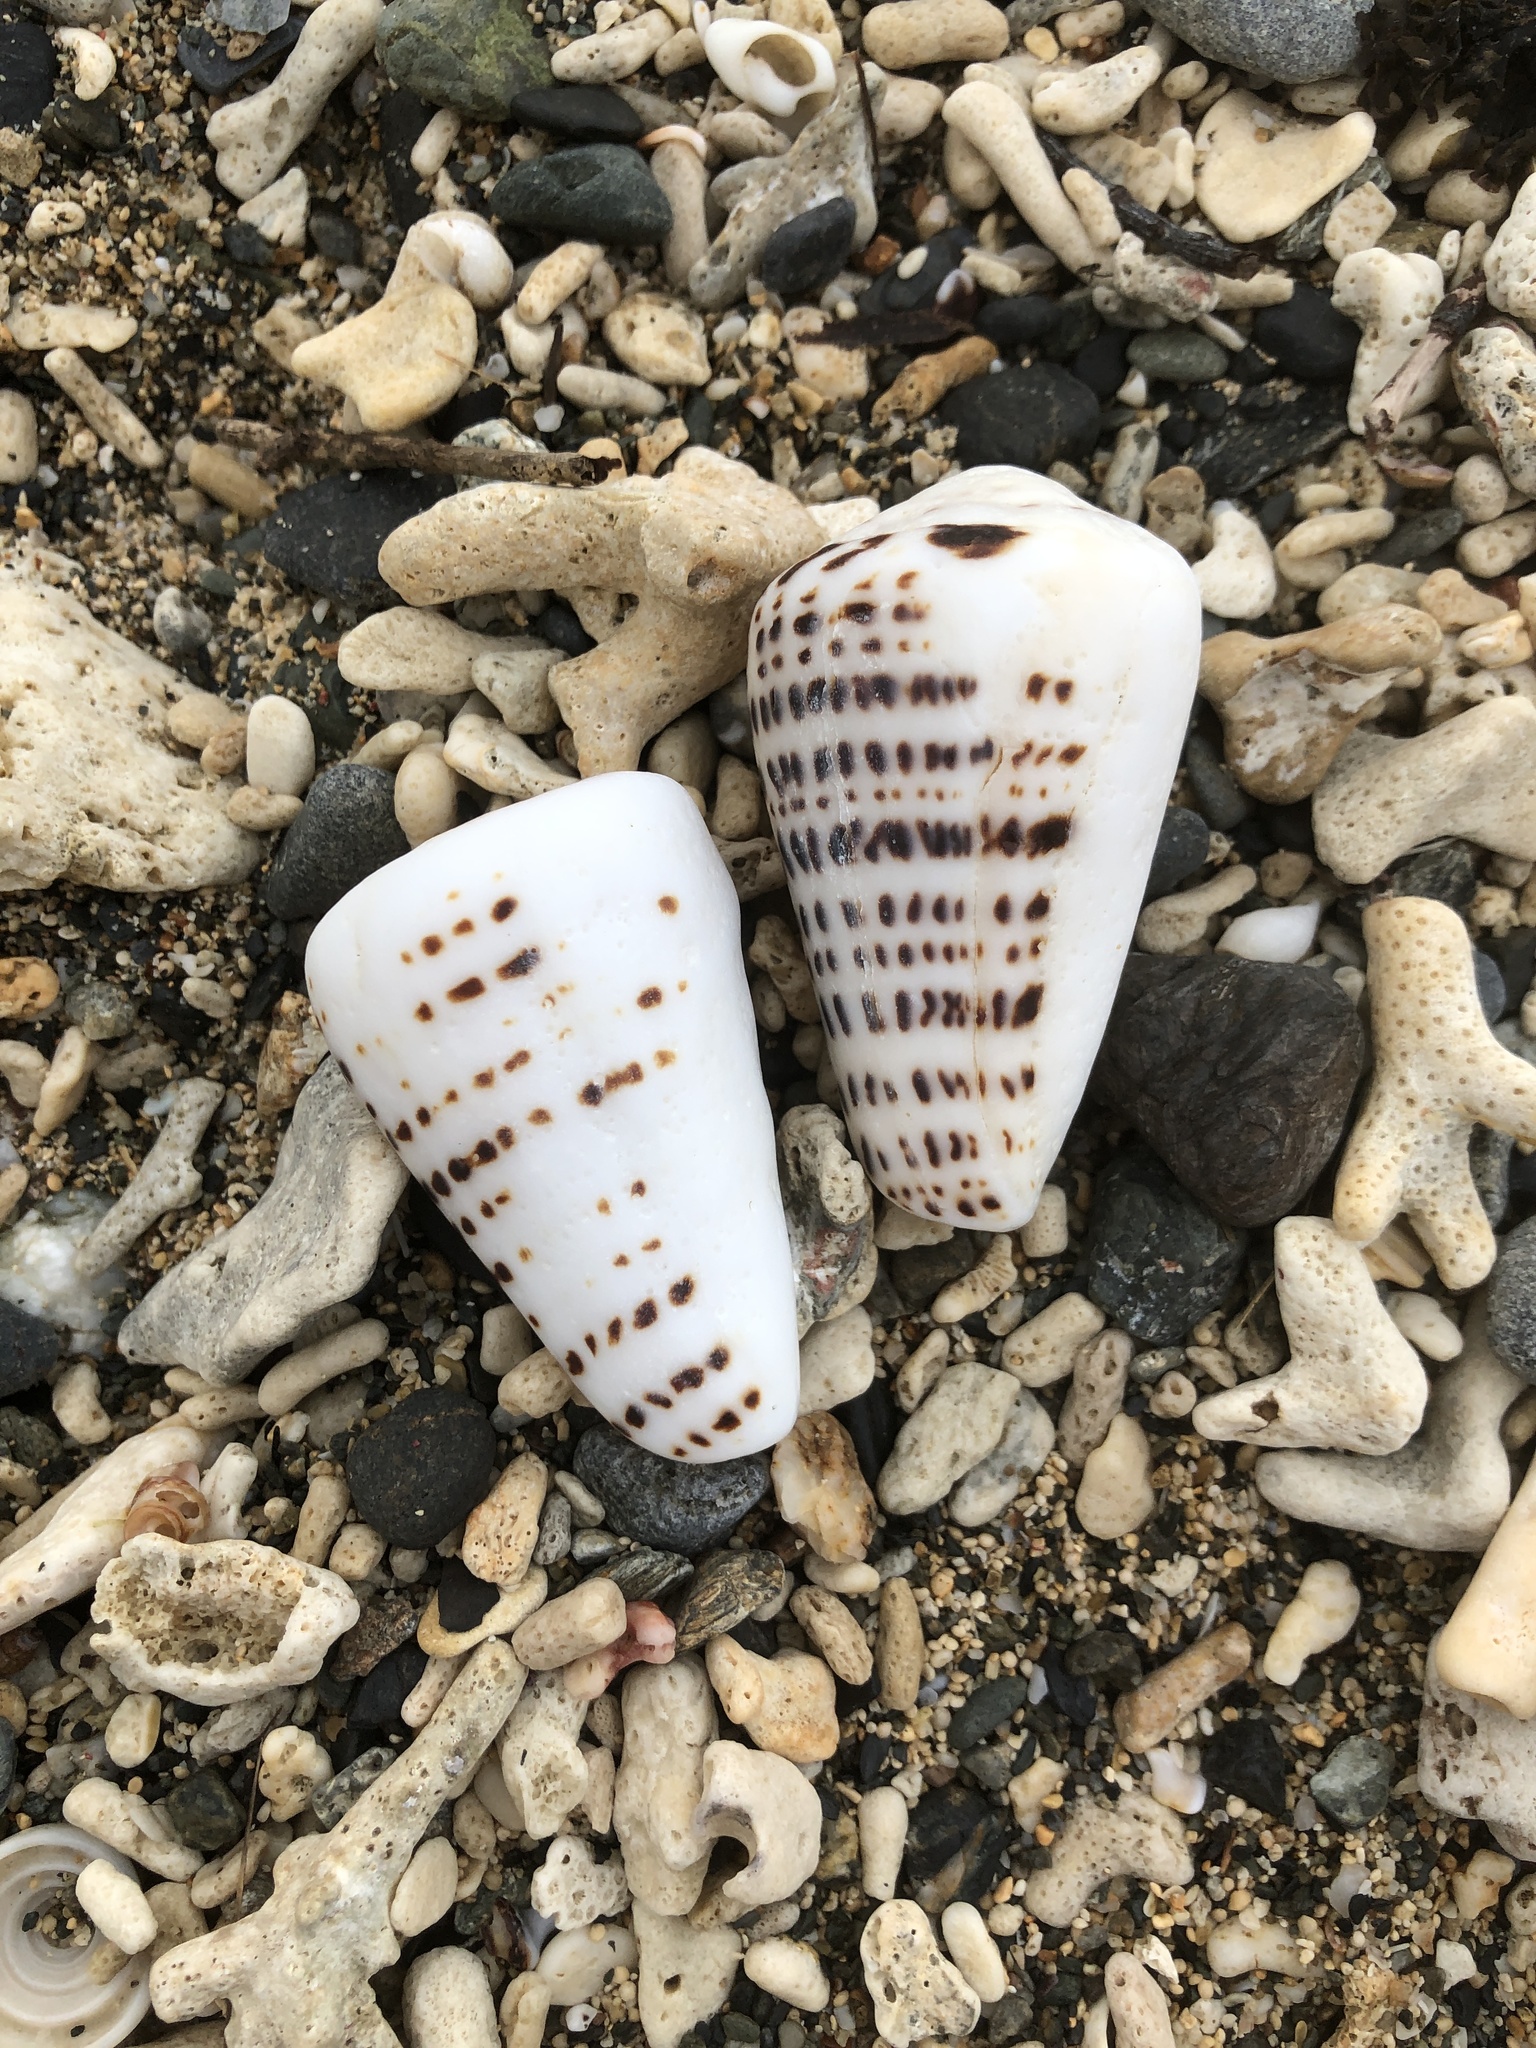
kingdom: Animalia
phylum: Mollusca
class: Gastropoda
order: Neogastropoda
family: Conidae
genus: Conus
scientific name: Conus leopardus
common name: Leopard cone
